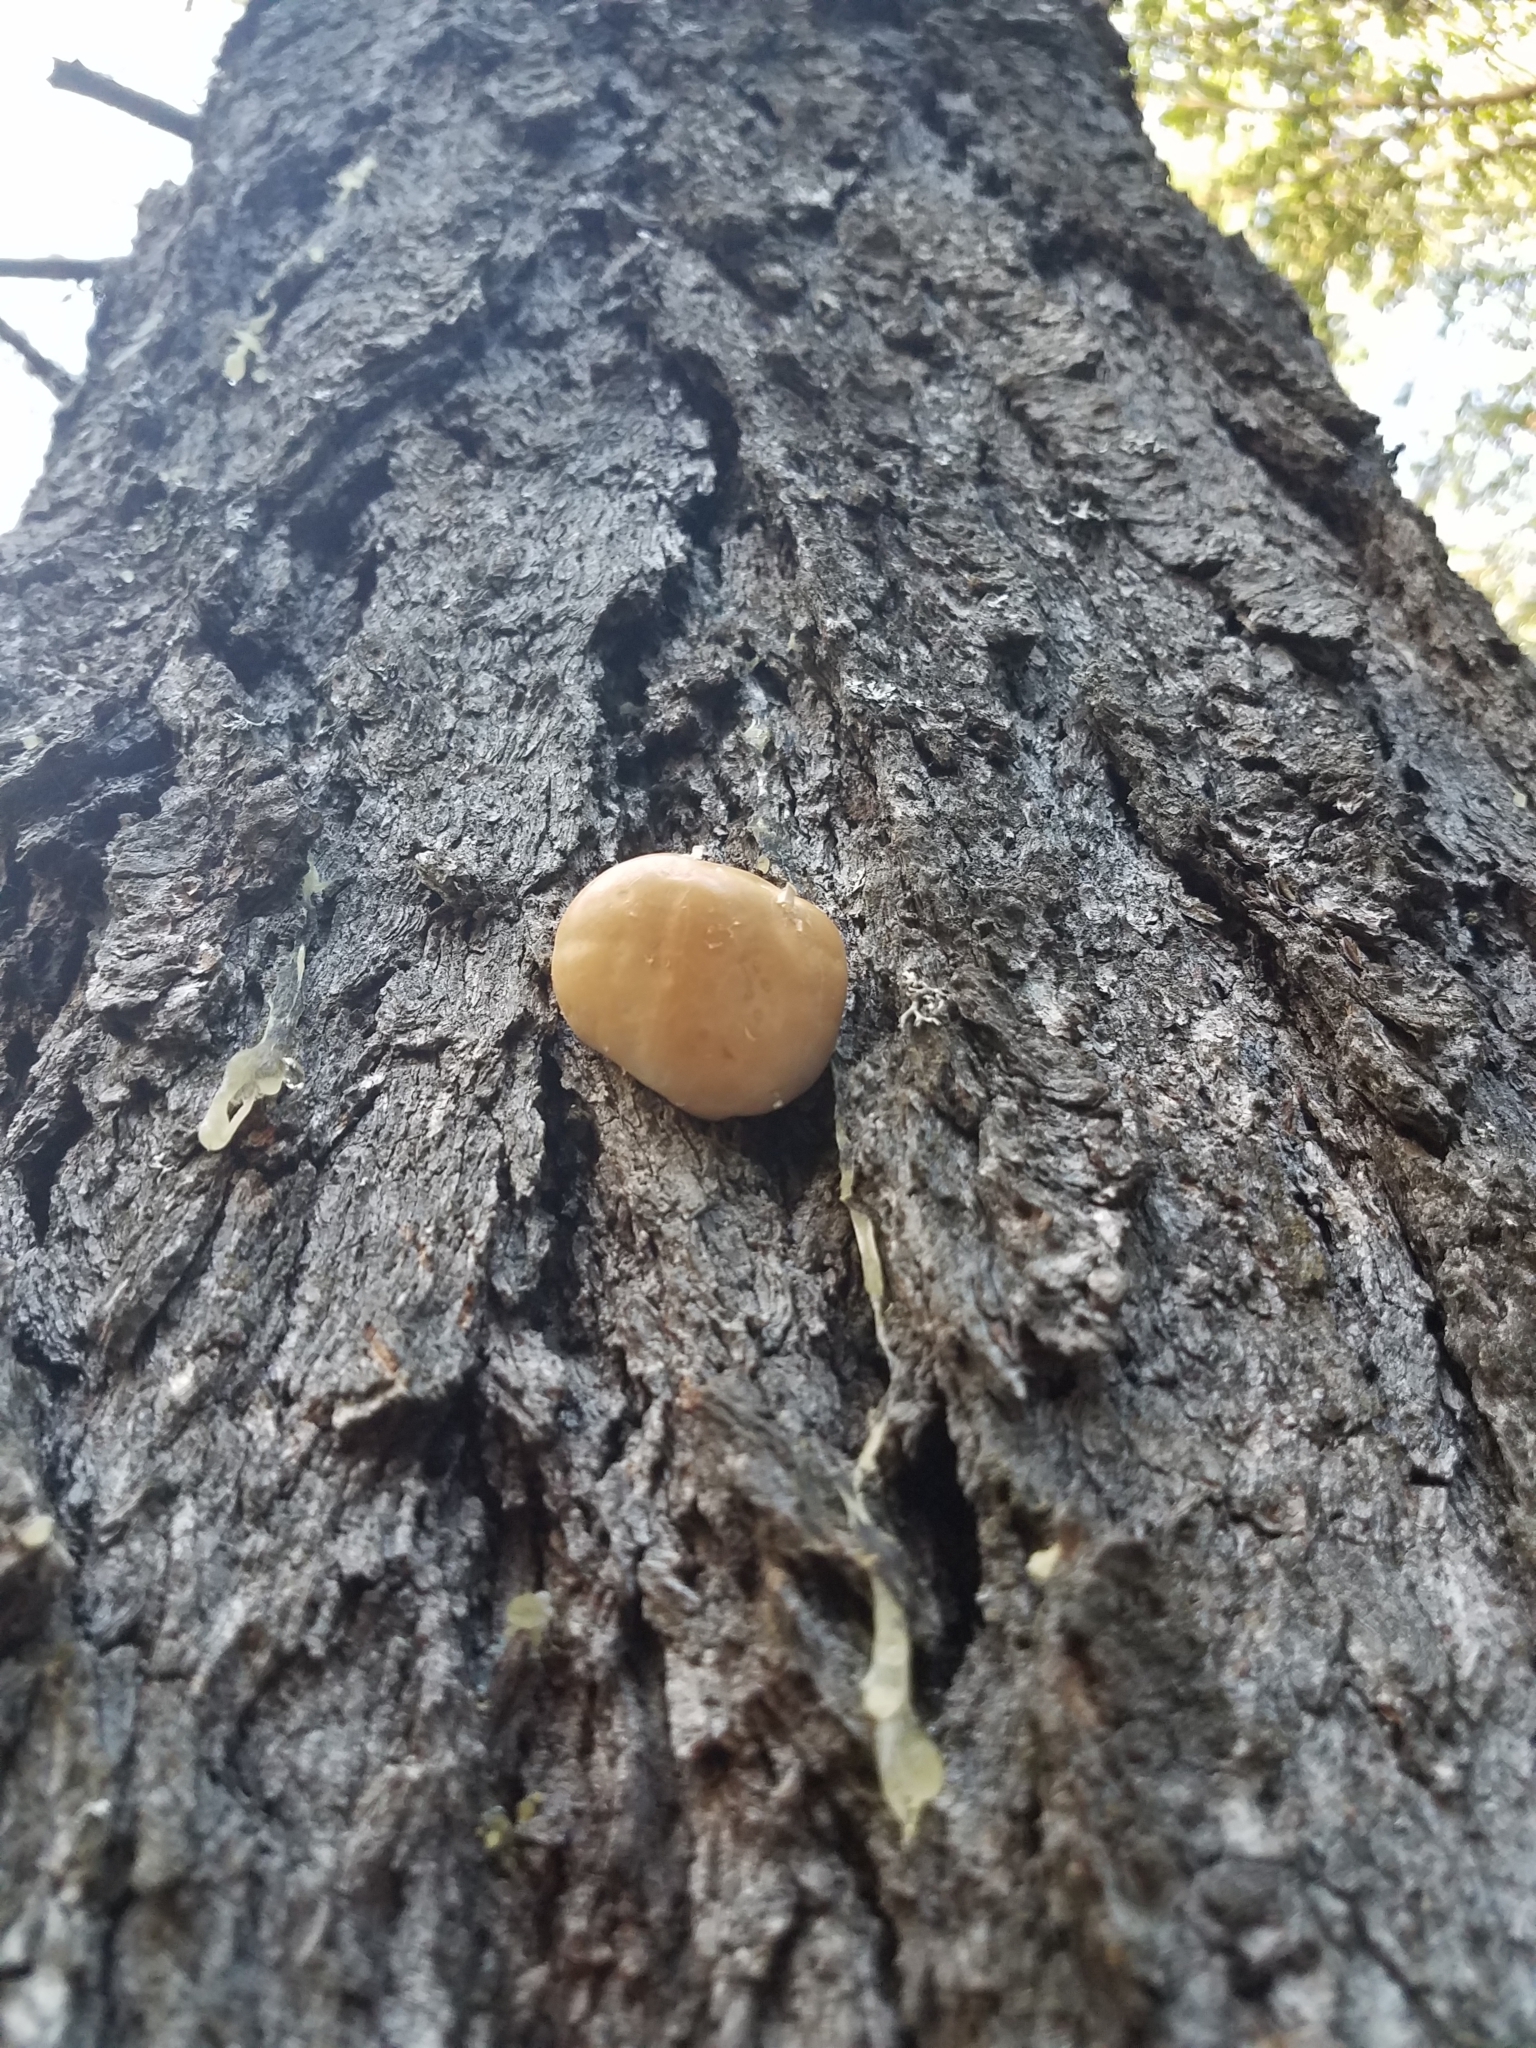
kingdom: Fungi
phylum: Basidiomycota
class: Agaricomycetes
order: Polyporales
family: Polyporaceae
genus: Cryptoporus
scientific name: Cryptoporus volvatus
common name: Veiled polypore
